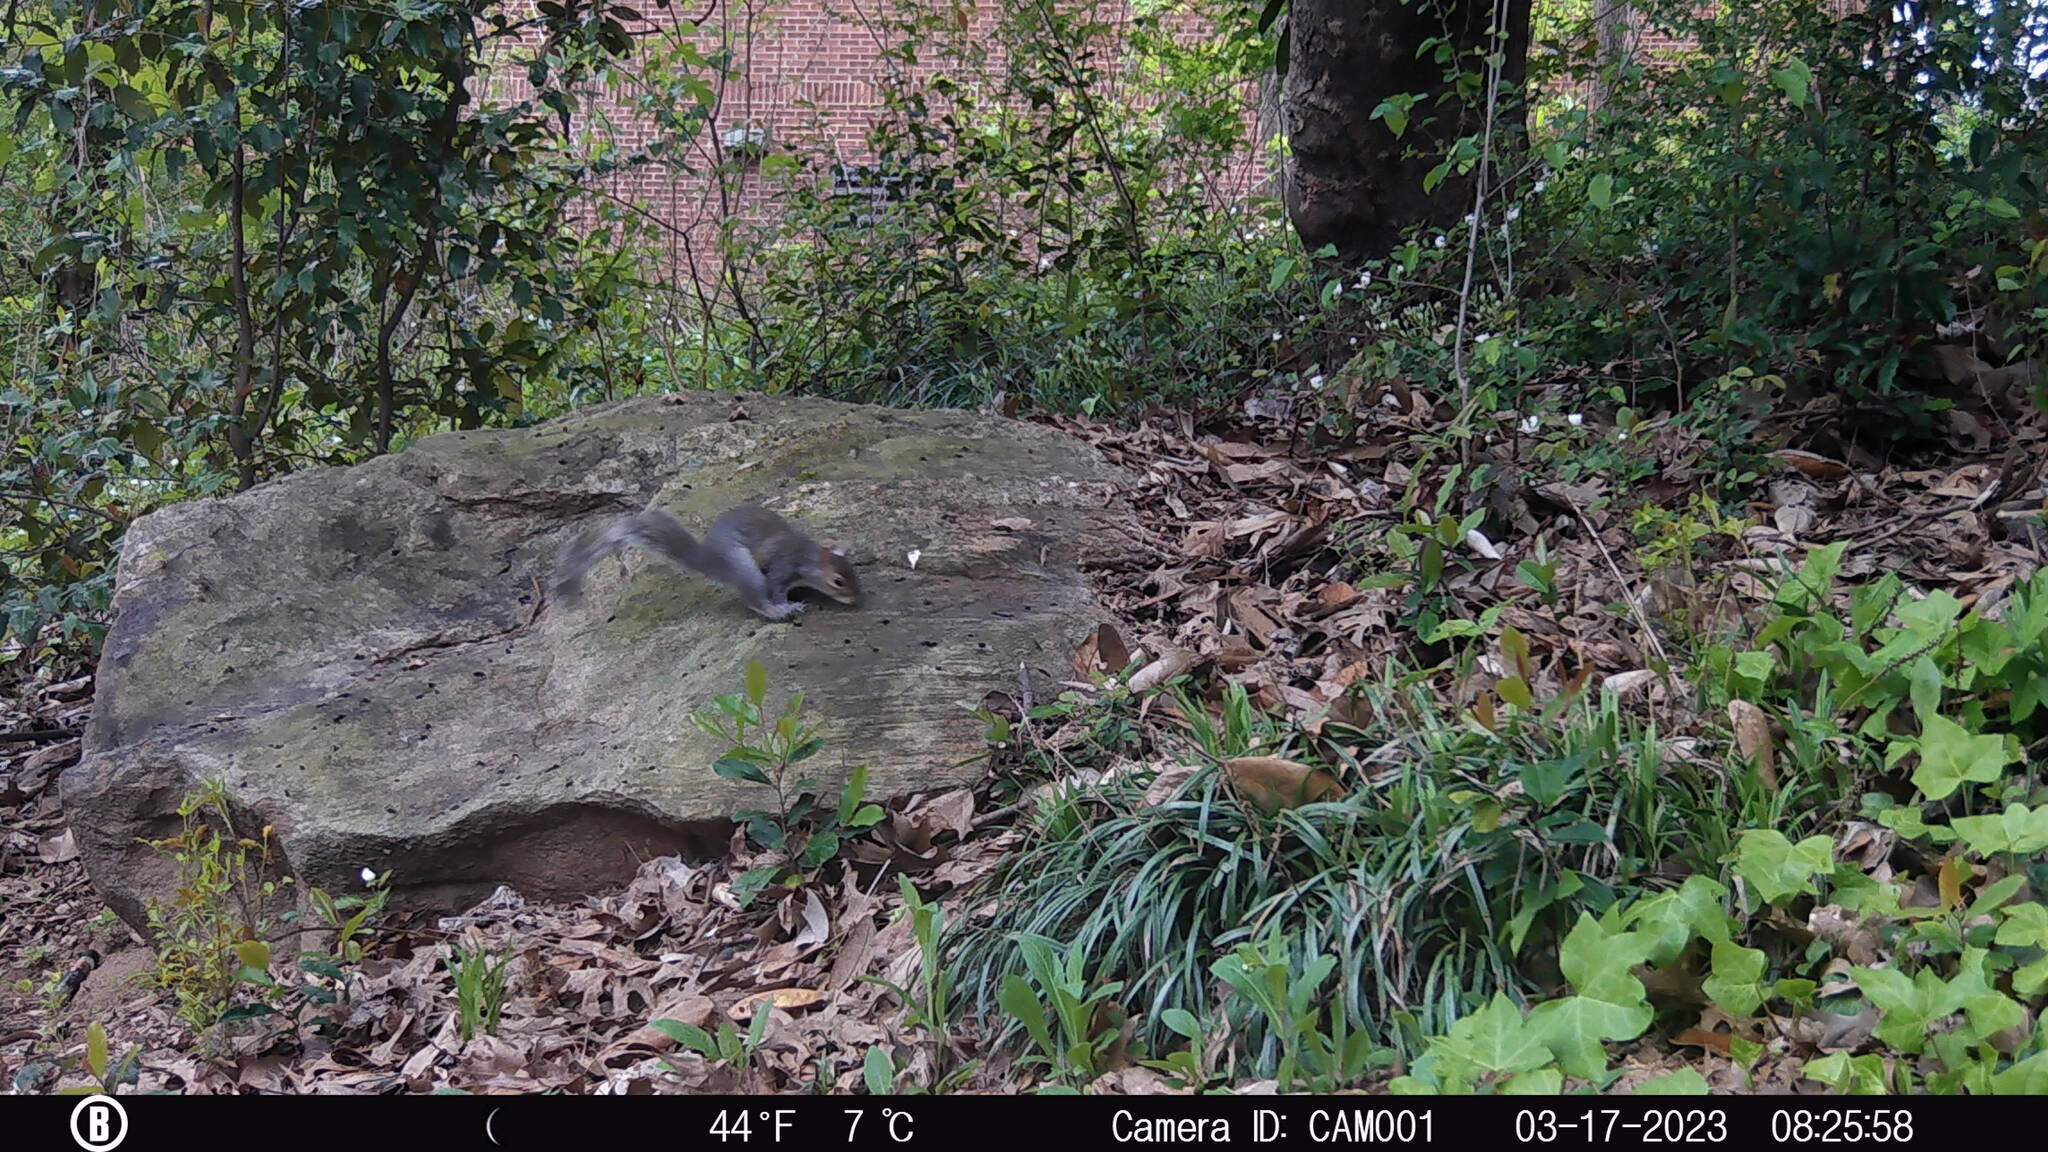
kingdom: Animalia
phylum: Chordata
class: Mammalia
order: Rodentia
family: Sciuridae
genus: Sciurus
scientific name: Sciurus carolinensis
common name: Eastern gray squirrel
